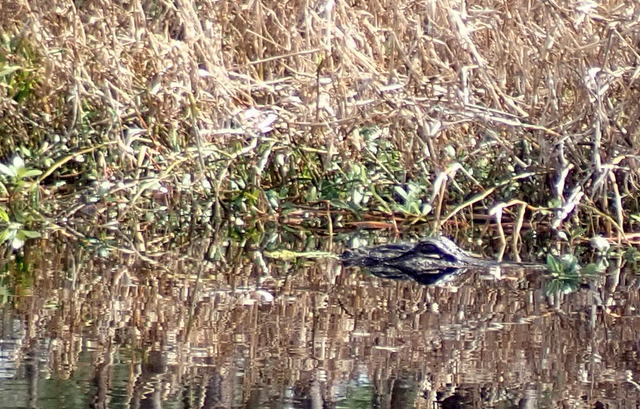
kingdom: Animalia
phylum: Chordata
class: Crocodylia
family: Alligatoridae
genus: Alligator
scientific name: Alligator mississippiensis
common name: American alligator
